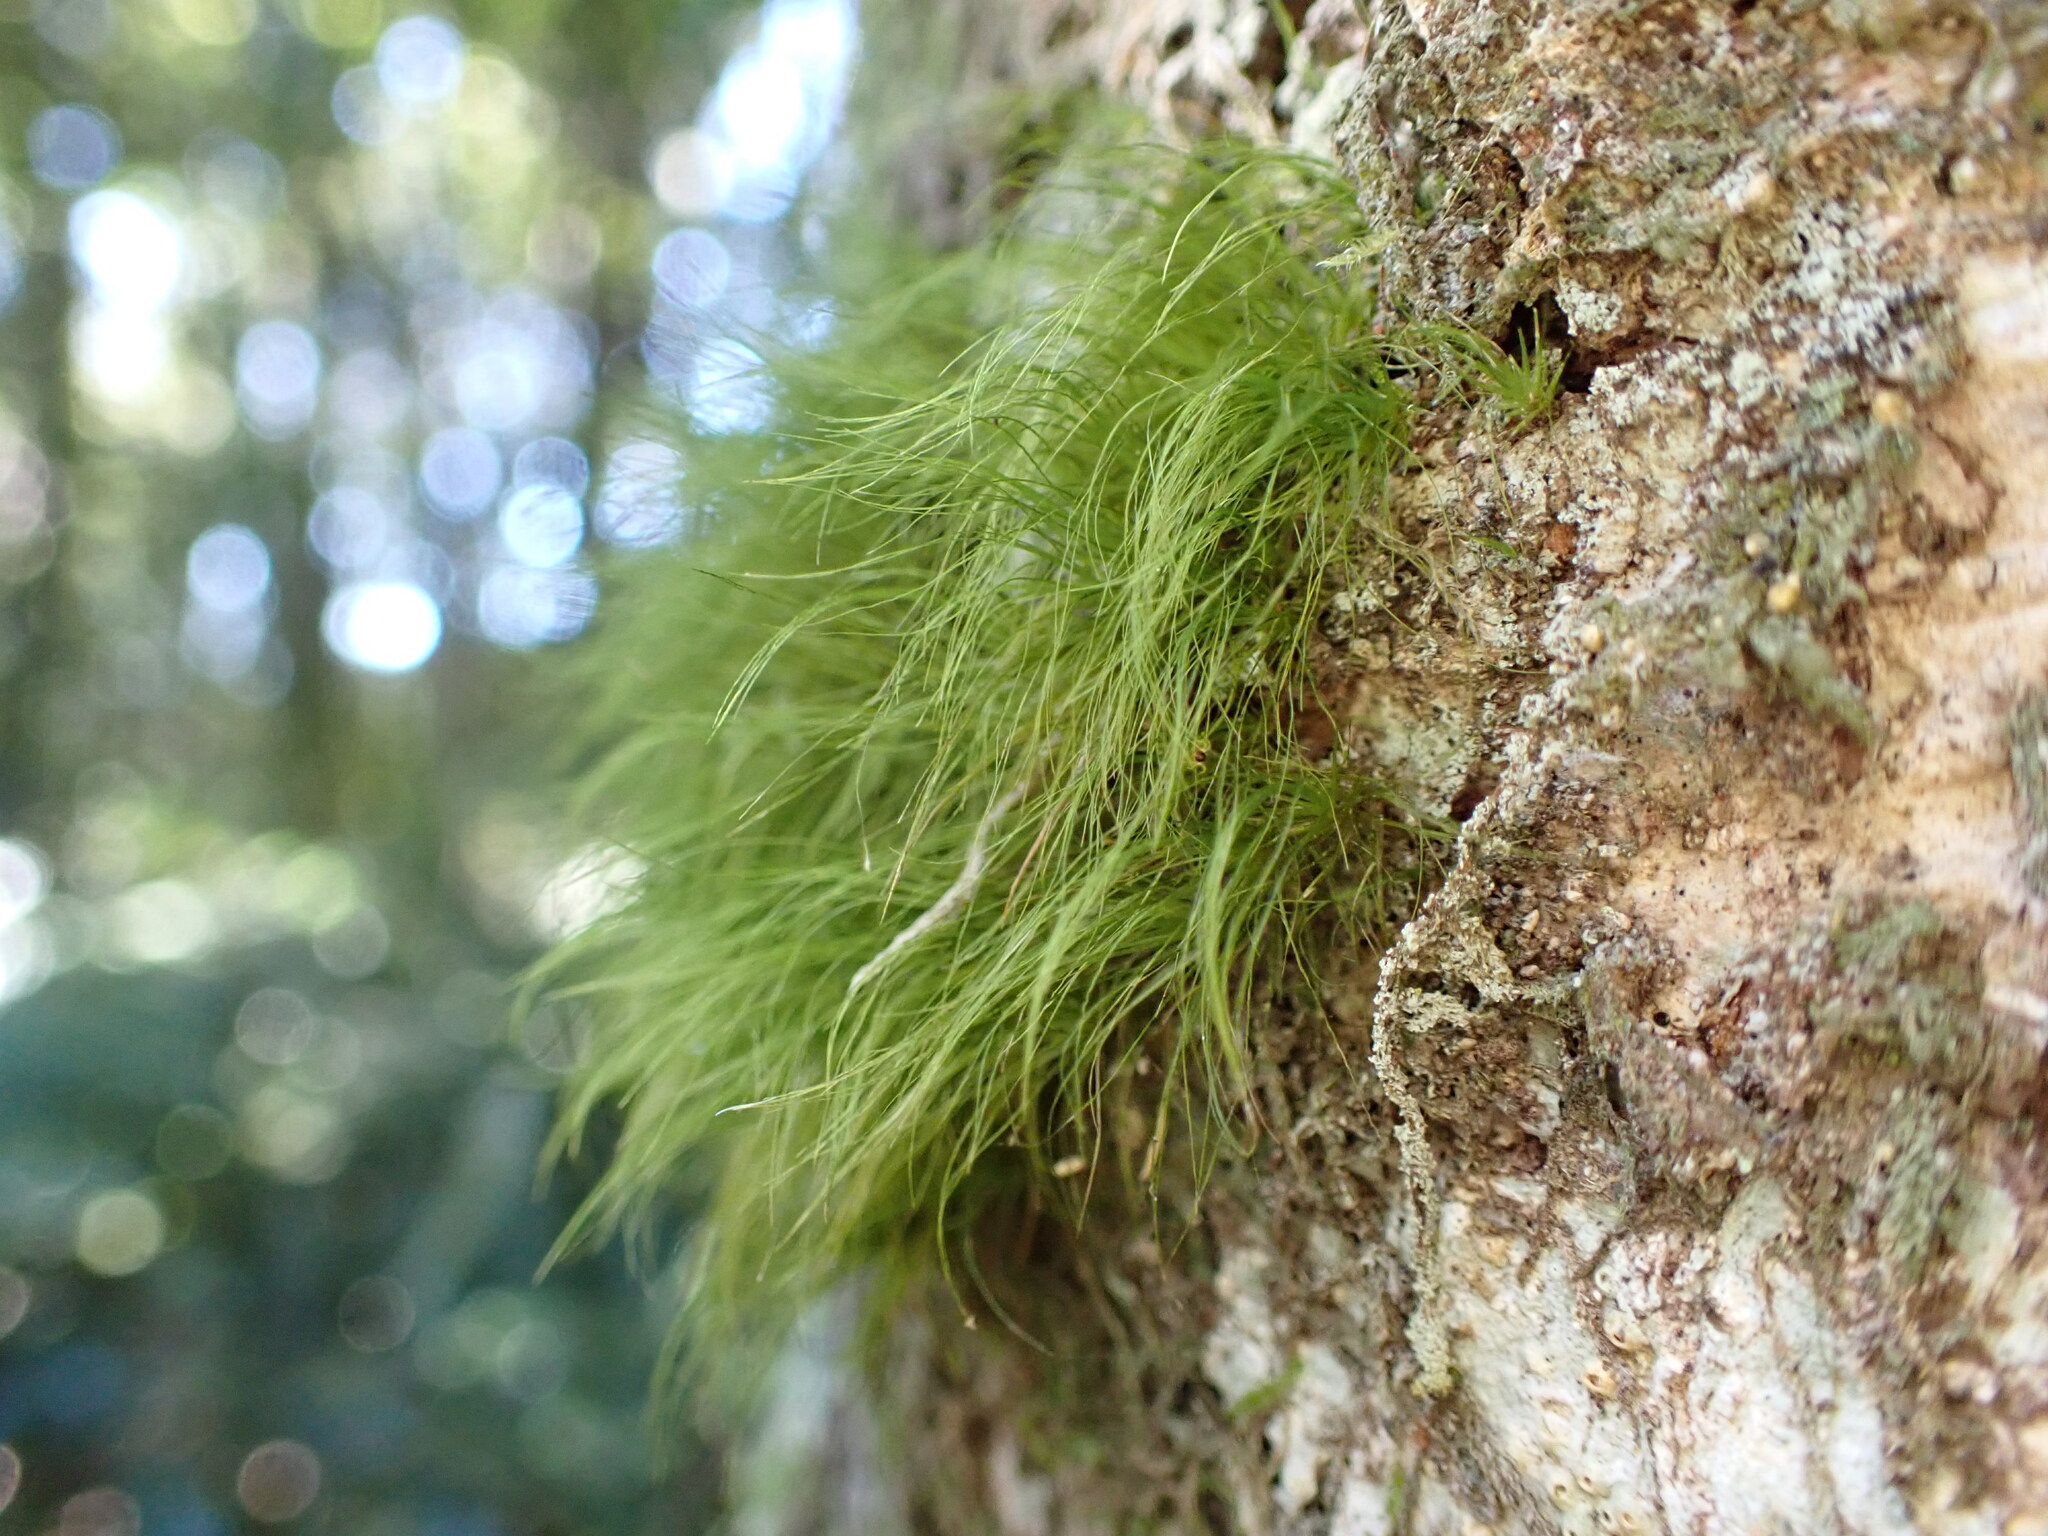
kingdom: Plantae
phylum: Bryophyta
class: Bryopsida
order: Dicranales
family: Dicranaceae
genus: Dicranoloma
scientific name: Dicranoloma menziesii
